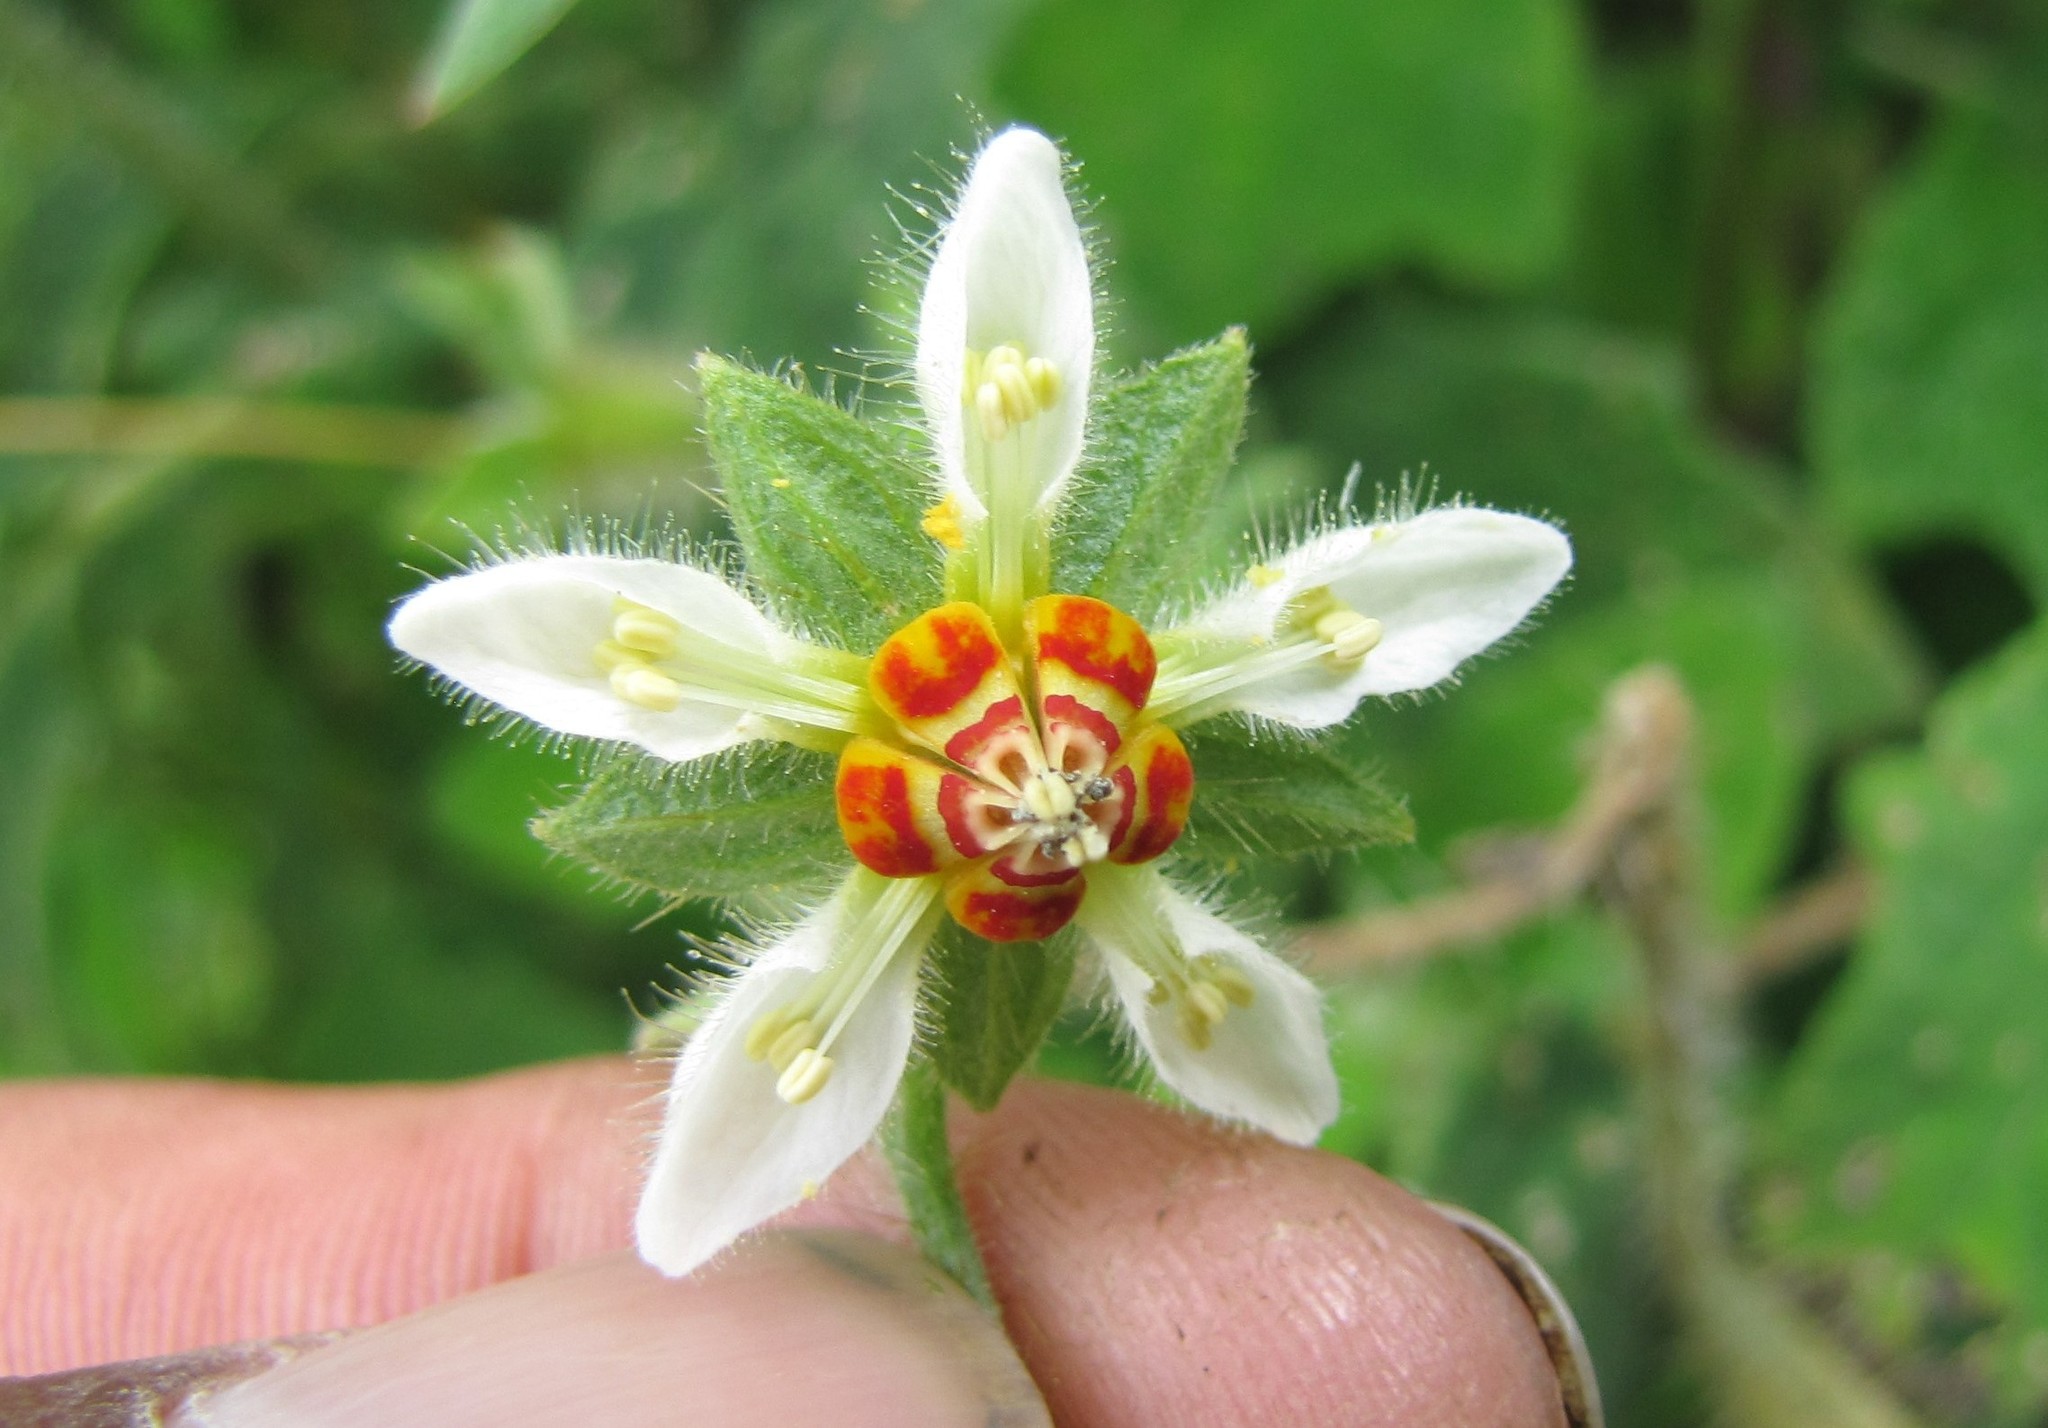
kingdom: Plantae
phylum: Tracheophyta
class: Magnoliopsida
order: Cornales
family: Loasaceae
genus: Nasa
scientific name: Nasa stuebeliana
